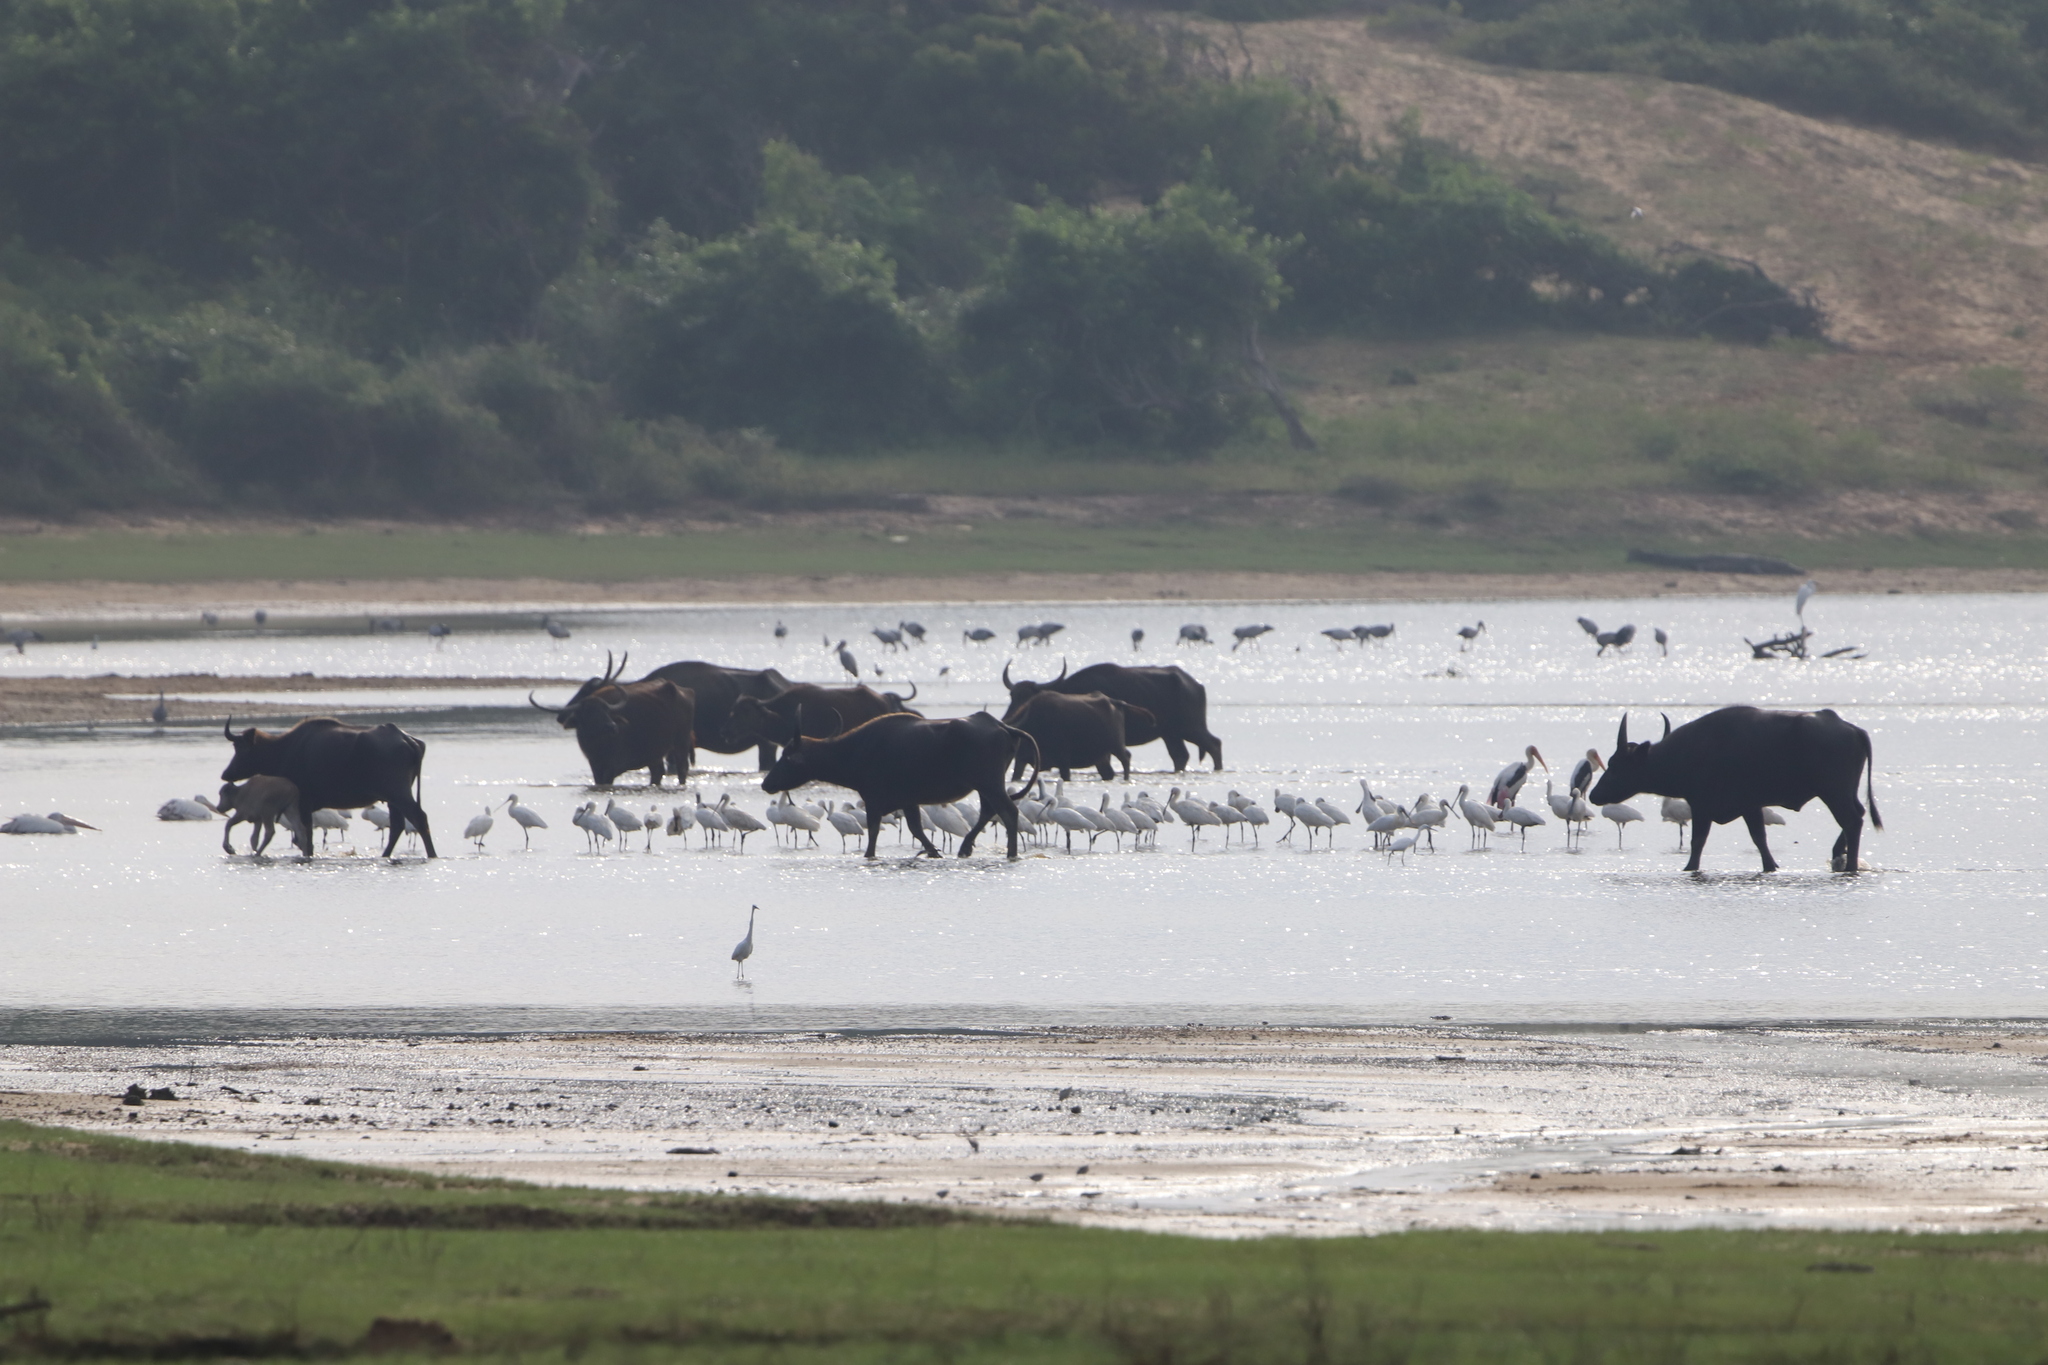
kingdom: Animalia
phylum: Chordata
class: Aves
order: Ciconiiformes
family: Ciconiidae
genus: Mycteria
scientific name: Mycteria leucocephala
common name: Painted stork
